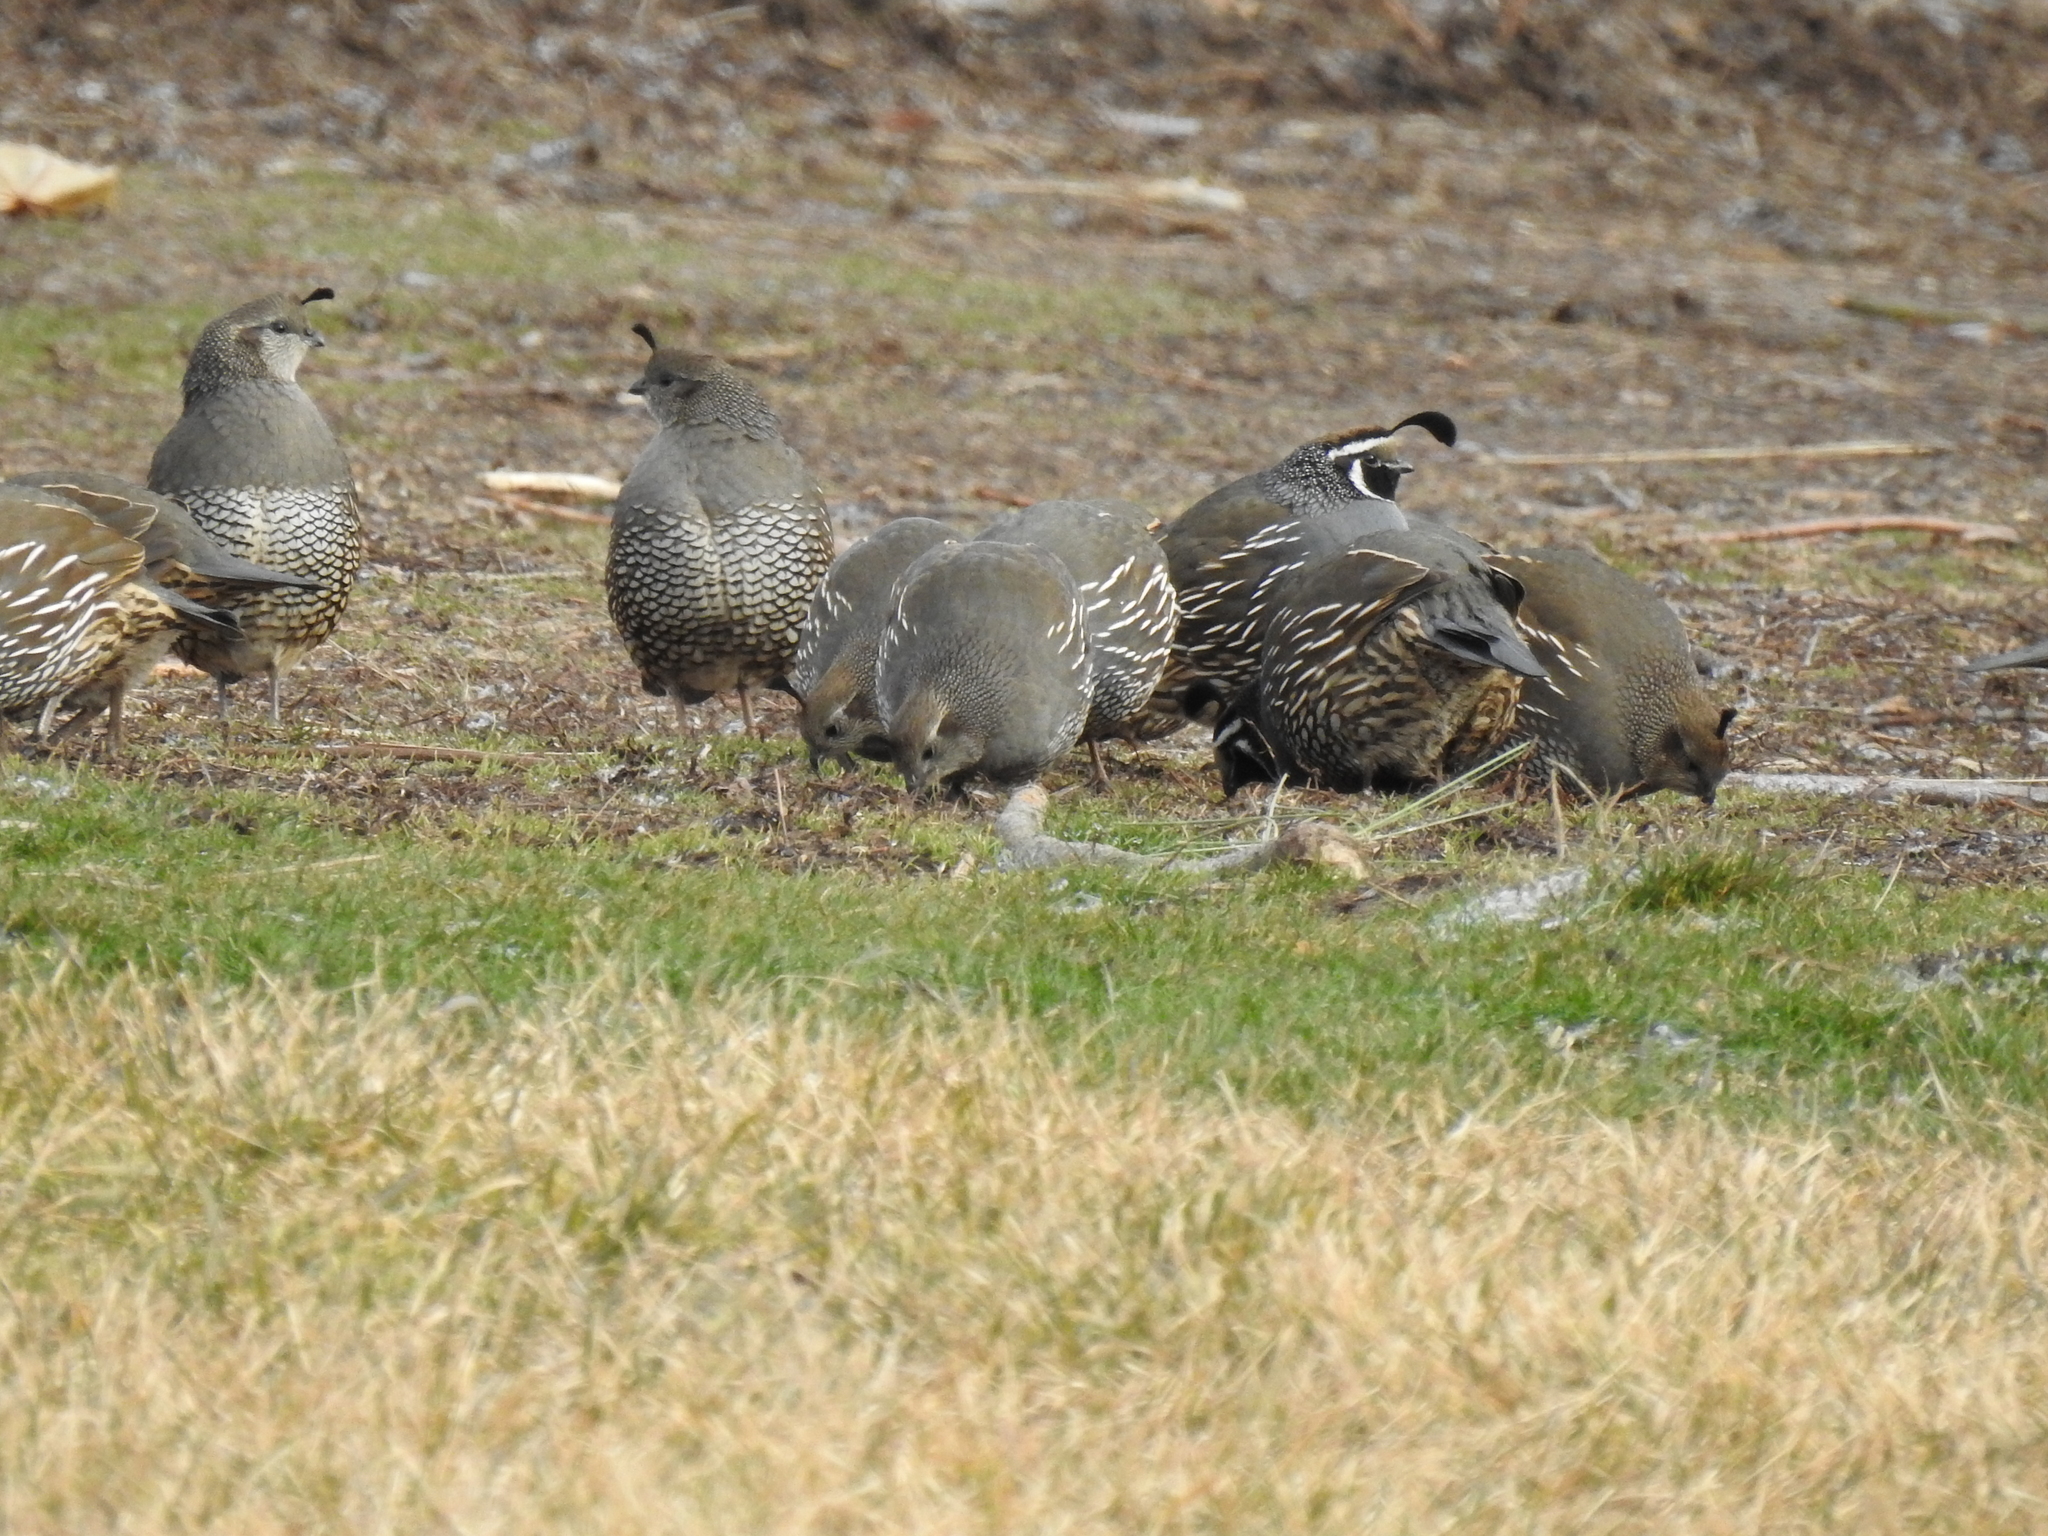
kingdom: Animalia
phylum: Chordata
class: Aves
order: Galliformes
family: Odontophoridae
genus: Callipepla
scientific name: Callipepla californica
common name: California quail
